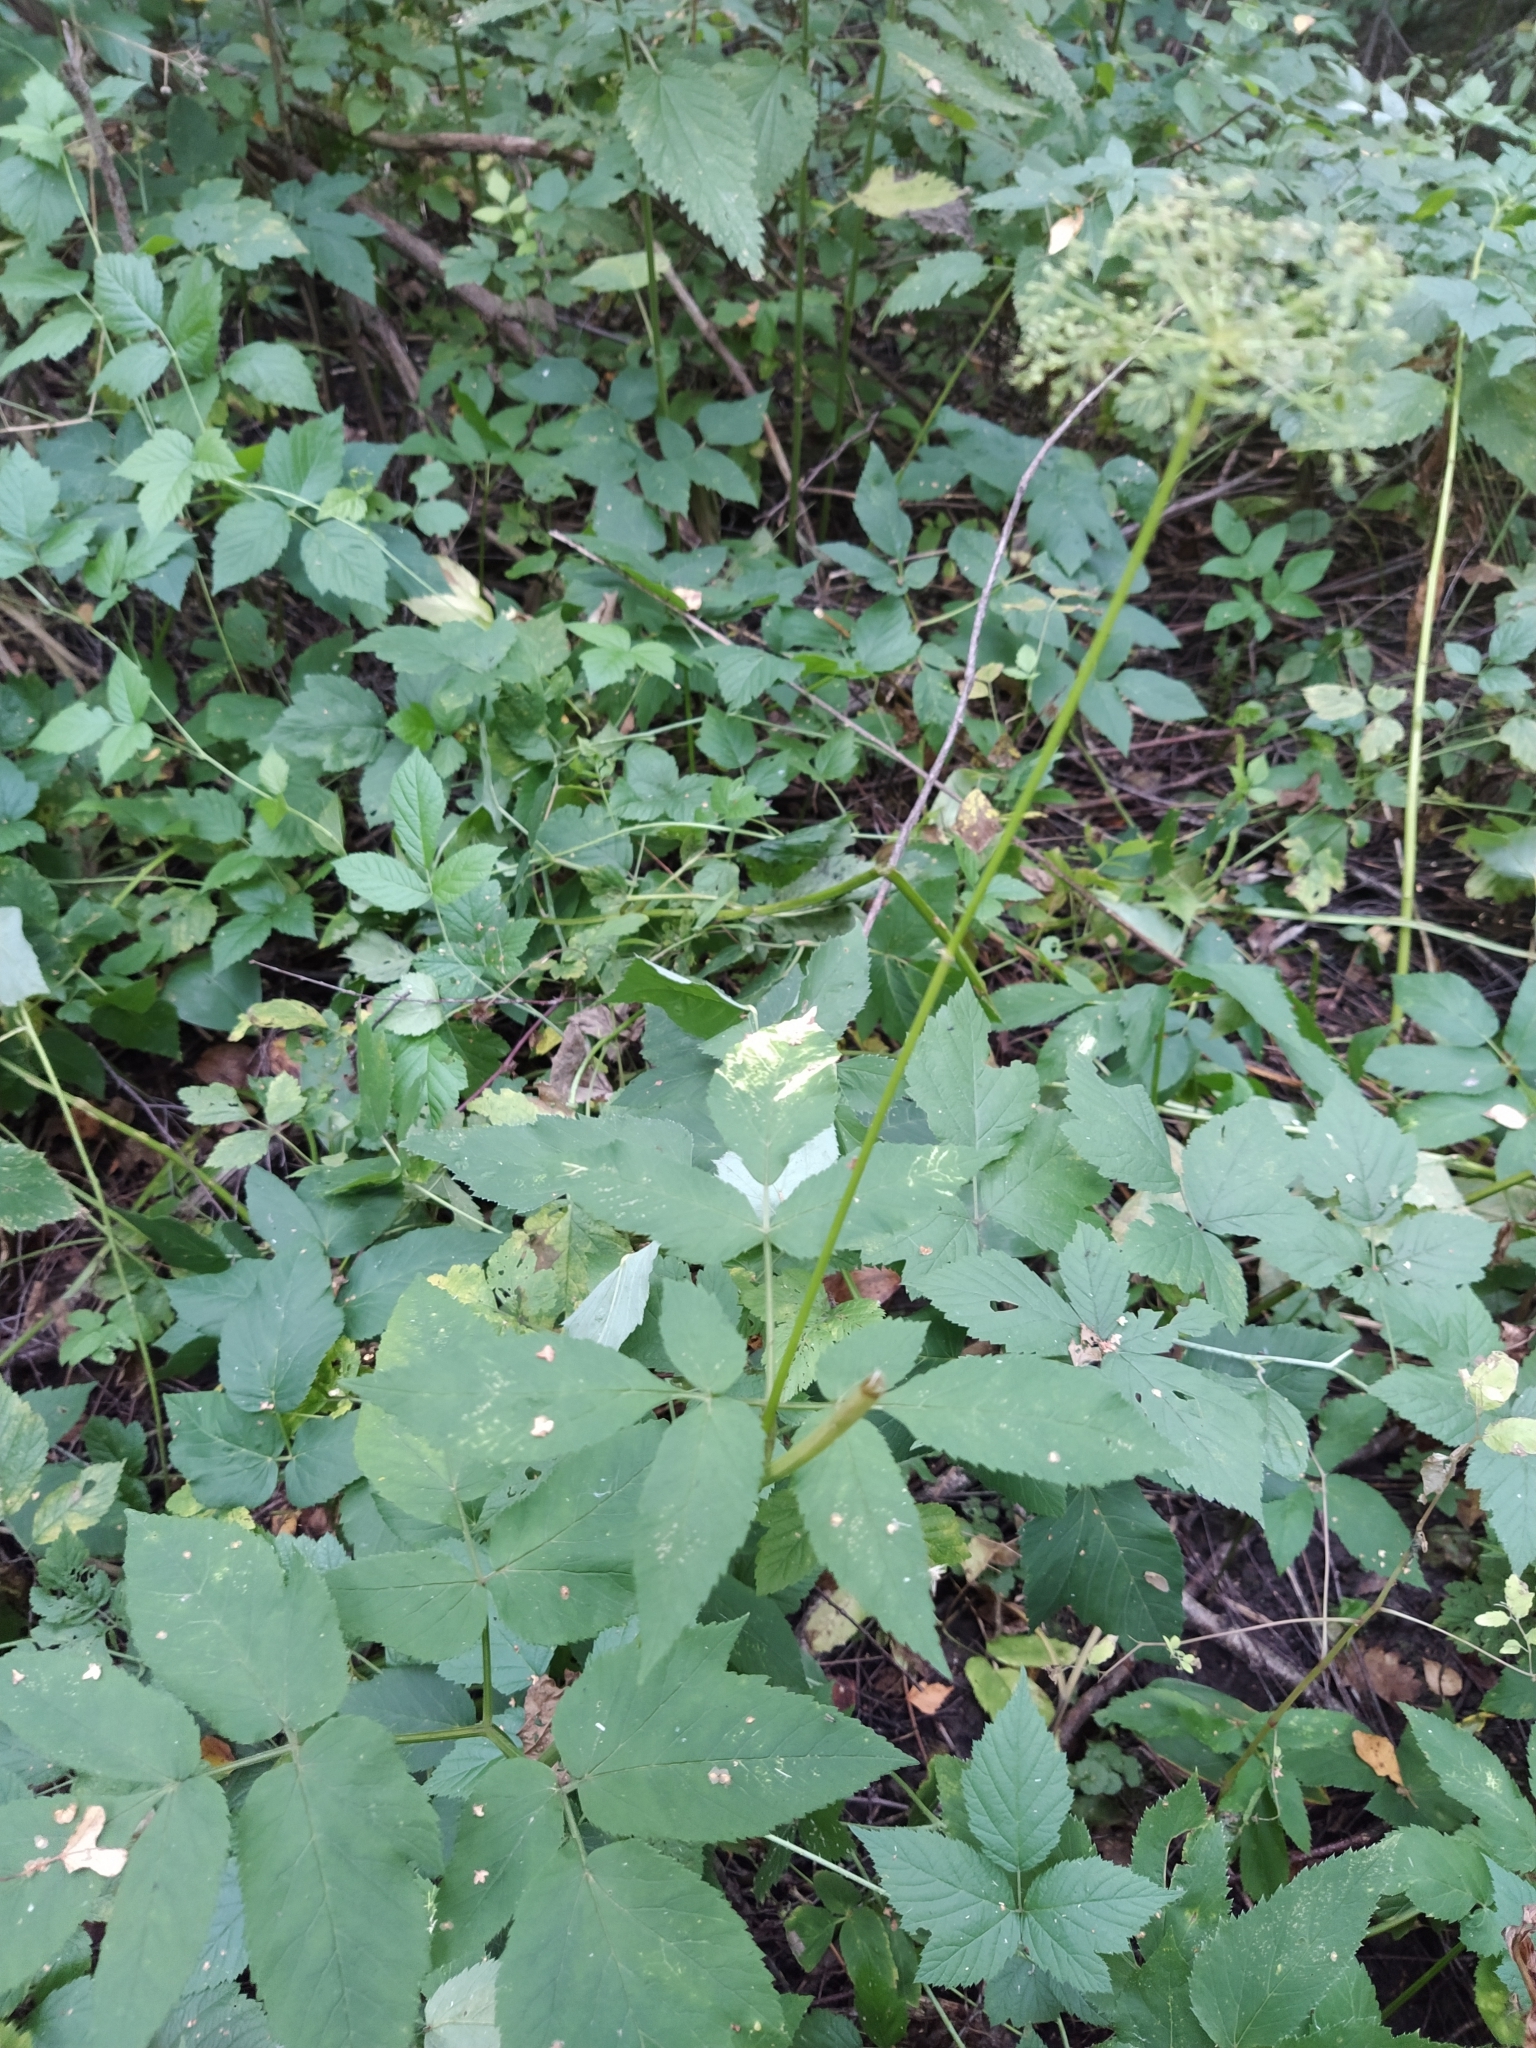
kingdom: Plantae
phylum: Tracheophyta
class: Magnoliopsida
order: Apiales
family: Apiaceae
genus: Aegopodium
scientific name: Aegopodium podagraria
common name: Ground-elder
